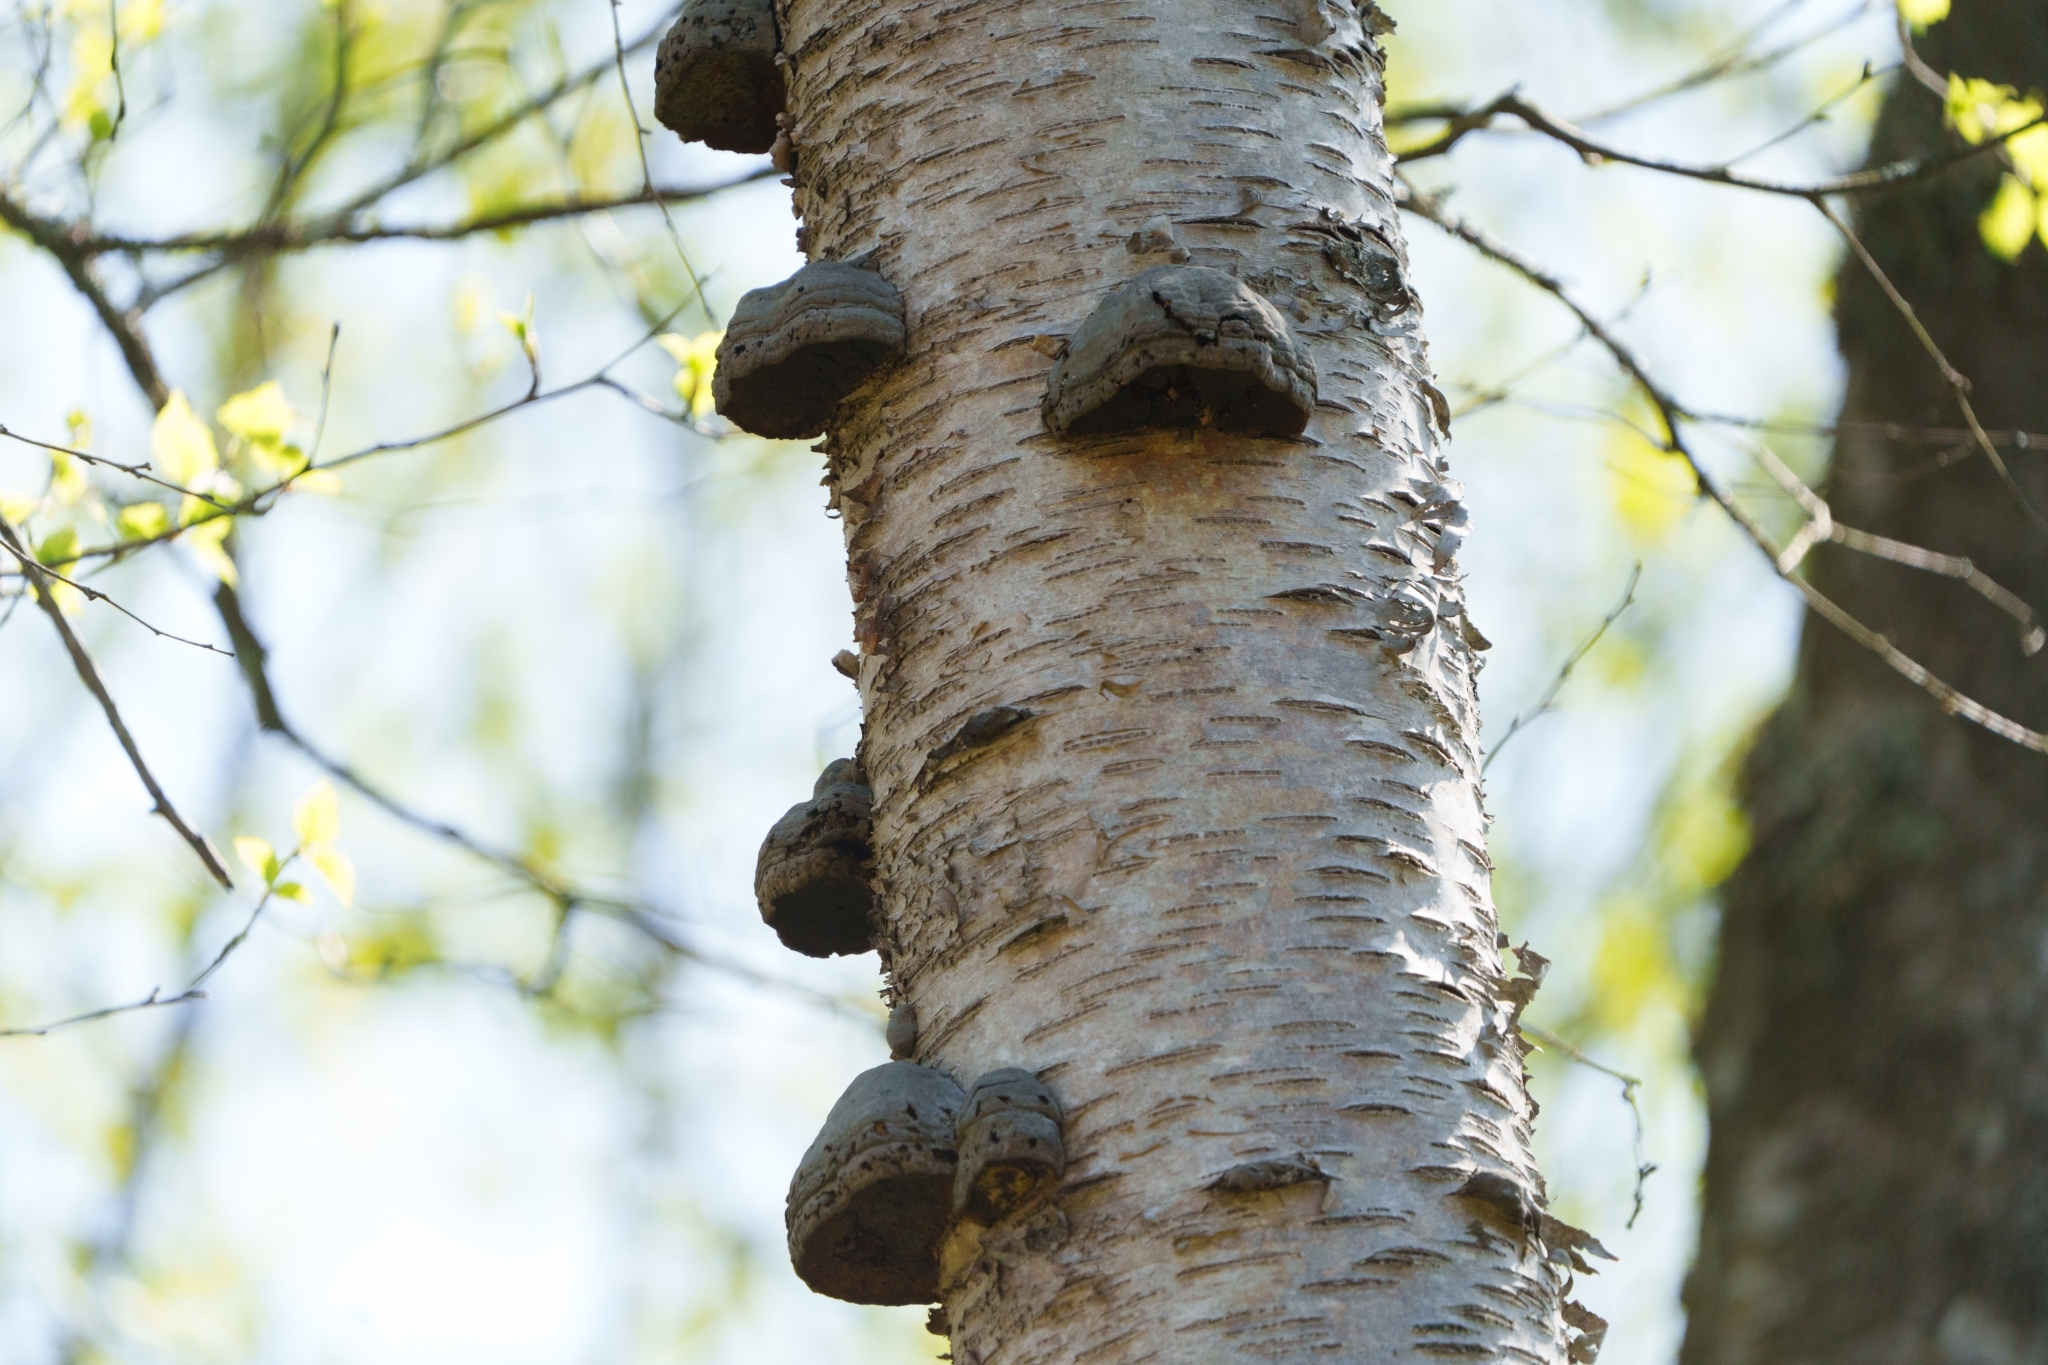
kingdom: Fungi
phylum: Basidiomycota
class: Agaricomycetes
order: Polyporales
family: Polyporaceae
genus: Fomes
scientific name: Fomes fomentarius
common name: Hoof fungus
